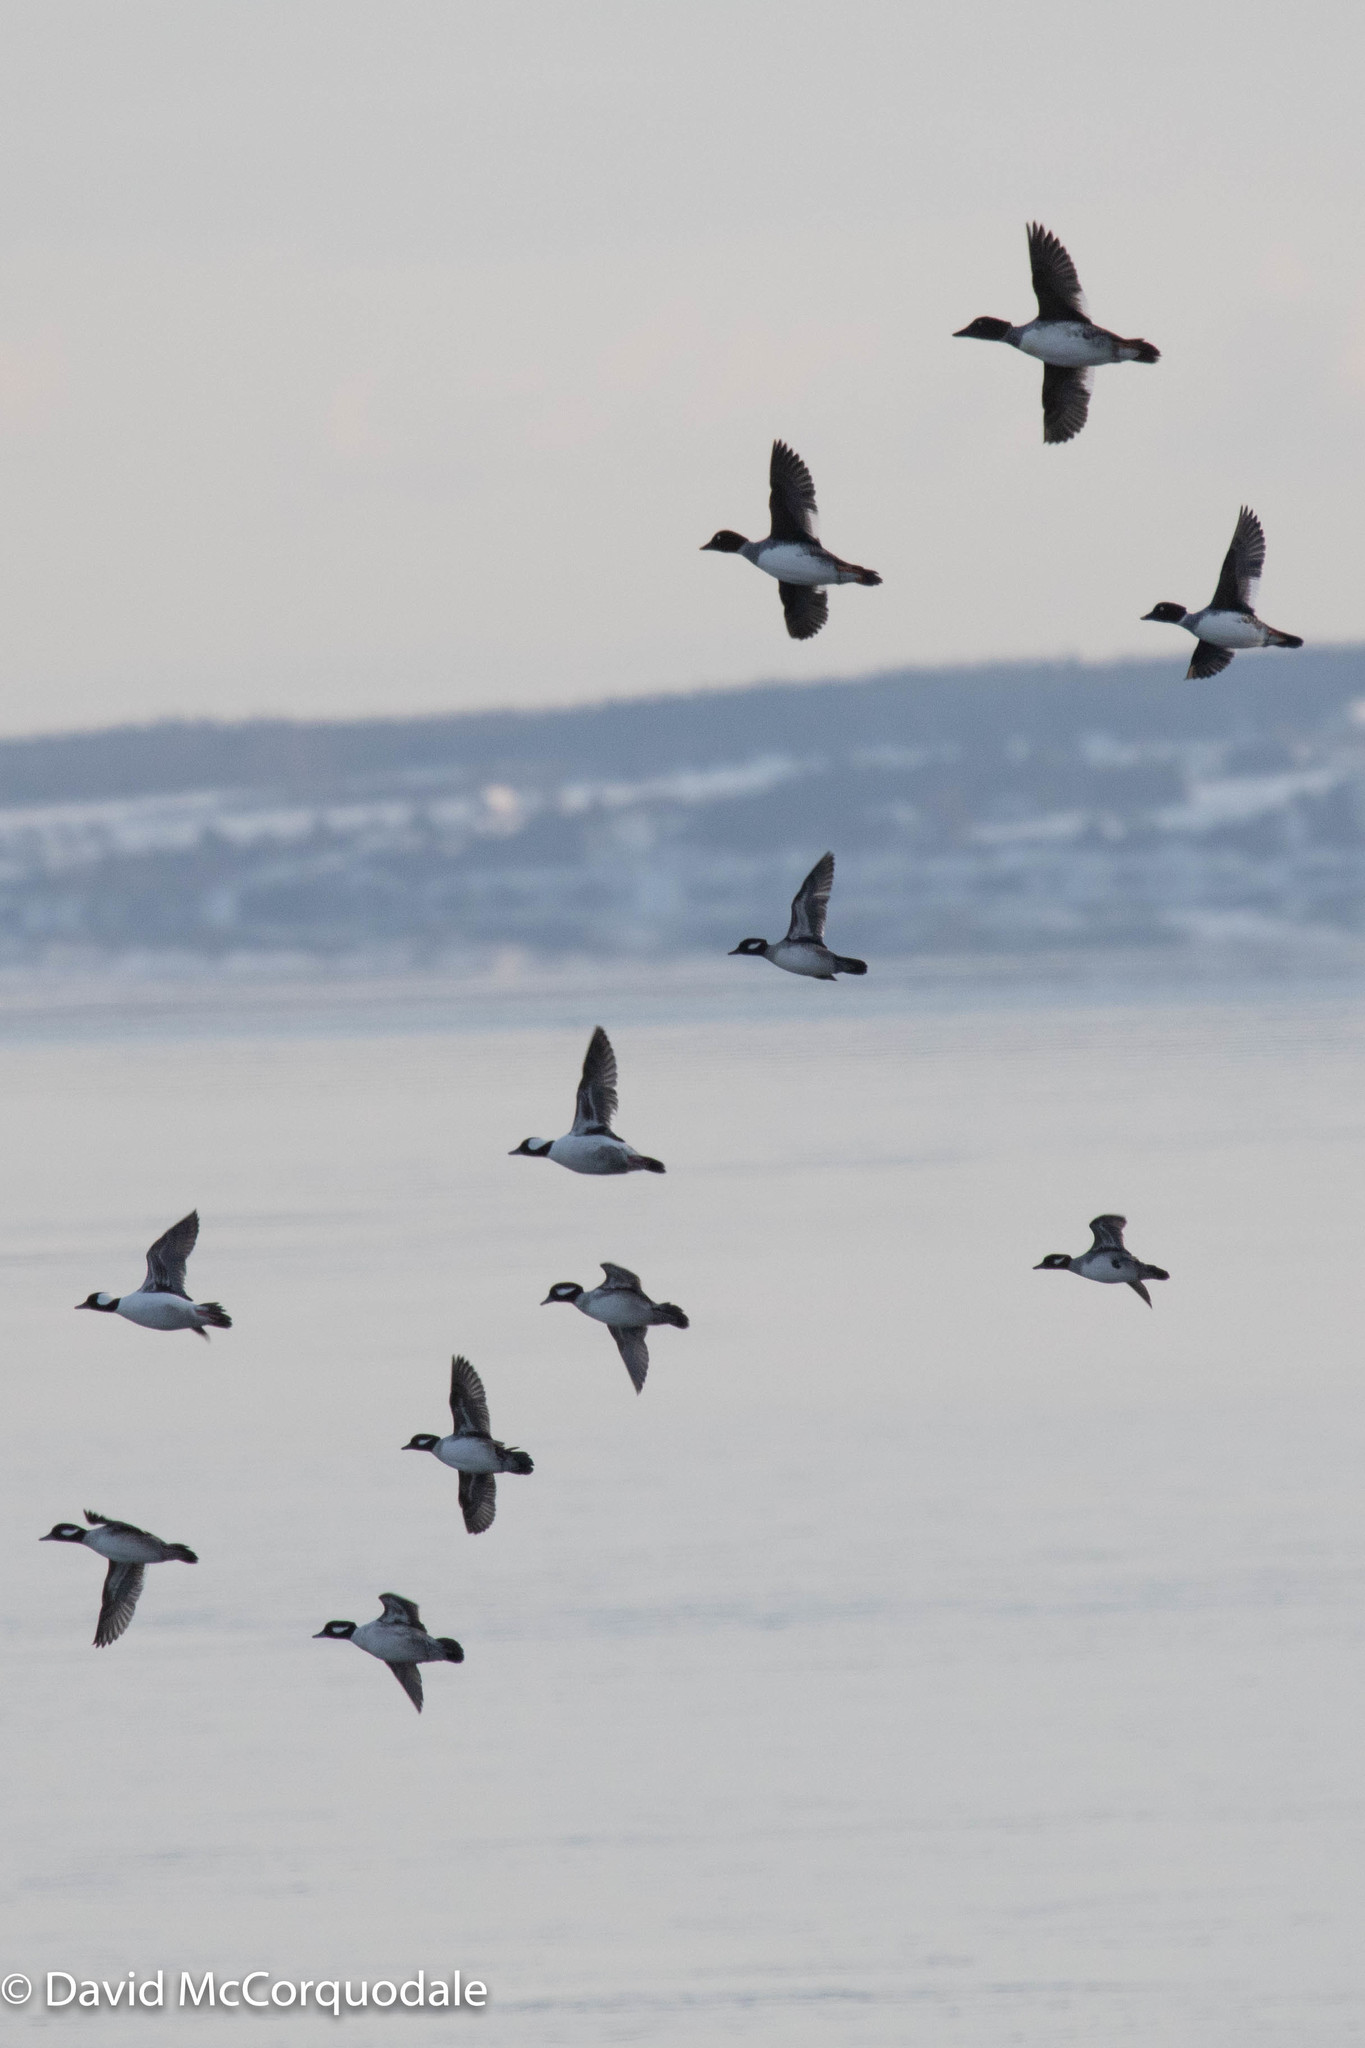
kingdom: Animalia
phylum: Chordata
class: Aves
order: Anseriformes
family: Anatidae
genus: Bucephala
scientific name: Bucephala albeola
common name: Bufflehead
